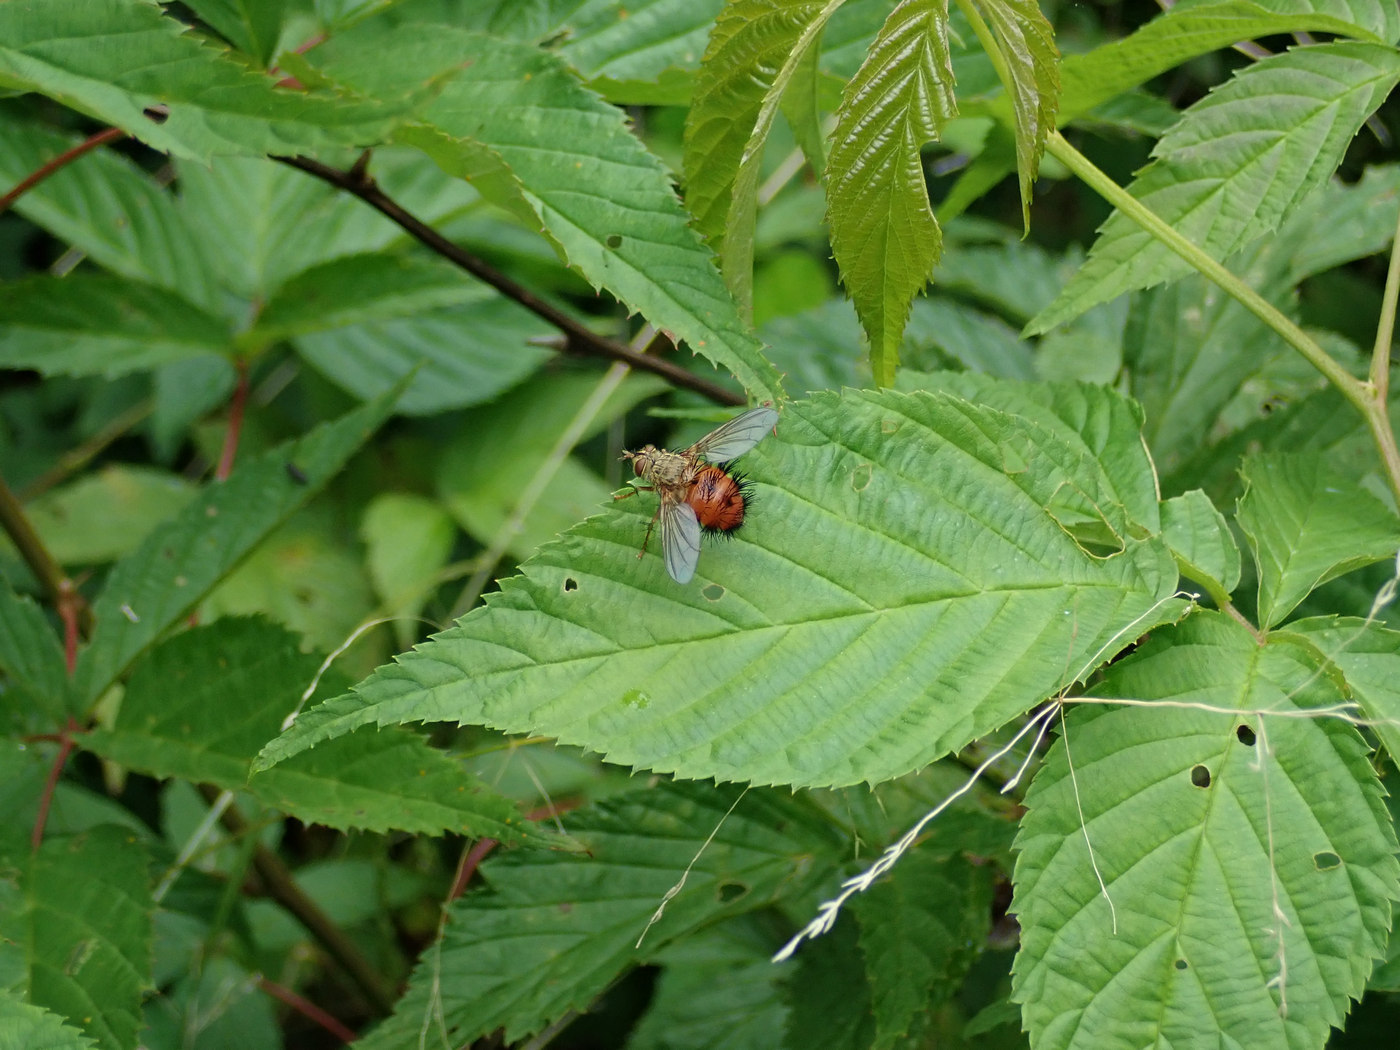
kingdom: Animalia
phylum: Arthropoda
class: Insecta
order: Diptera
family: Tachinidae
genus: Hystricia
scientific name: Hystricia abrupta
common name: Tomato bristle fly
